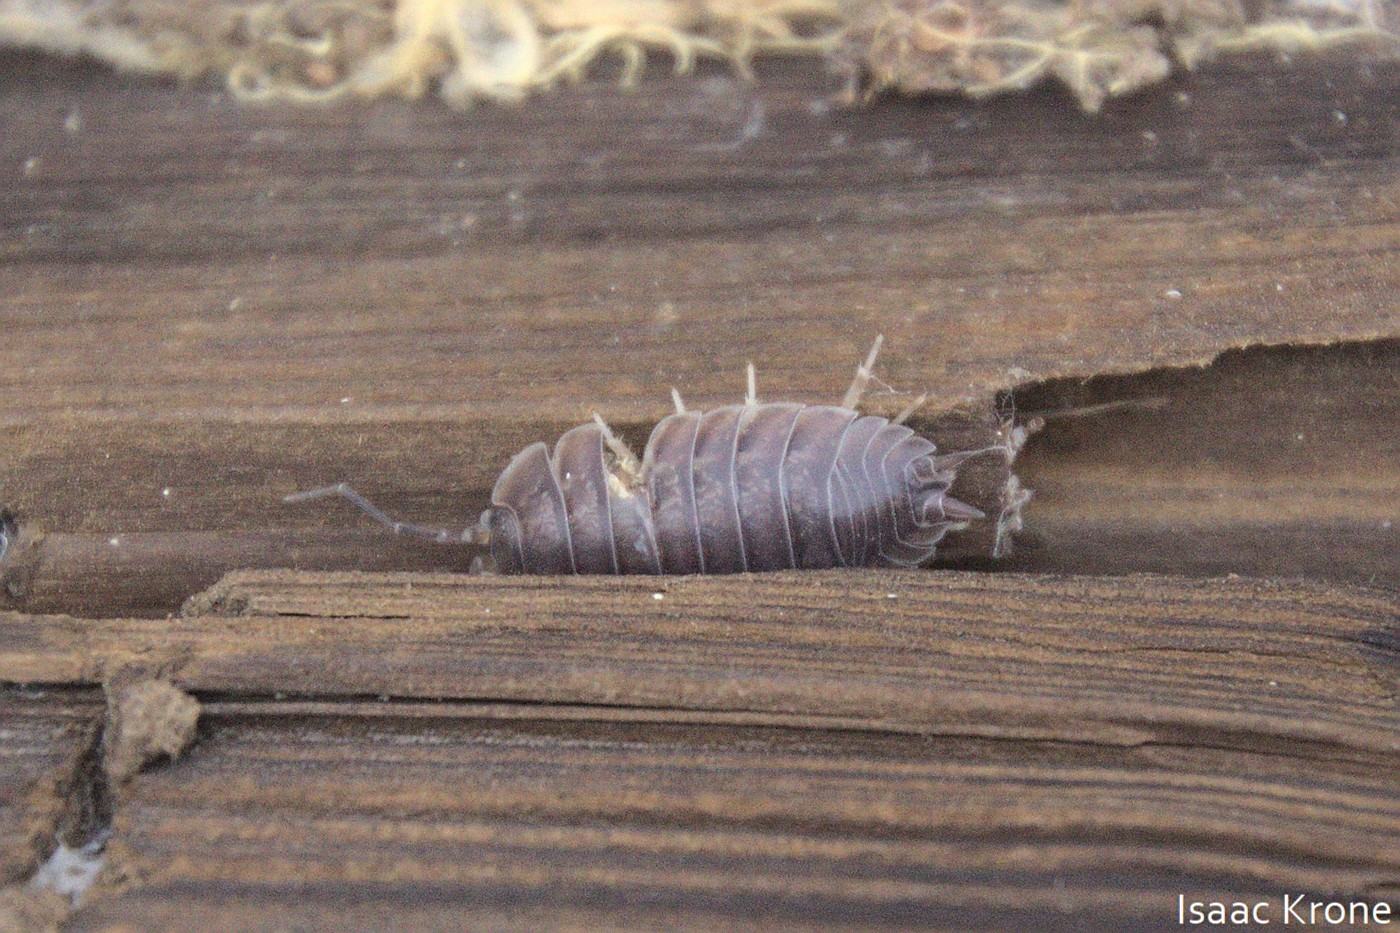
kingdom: Animalia
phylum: Arthropoda
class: Malacostraca
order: Isopoda
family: Porcellionidae
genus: Porcellio
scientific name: Porcellio laevis
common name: Swift woodlouse
